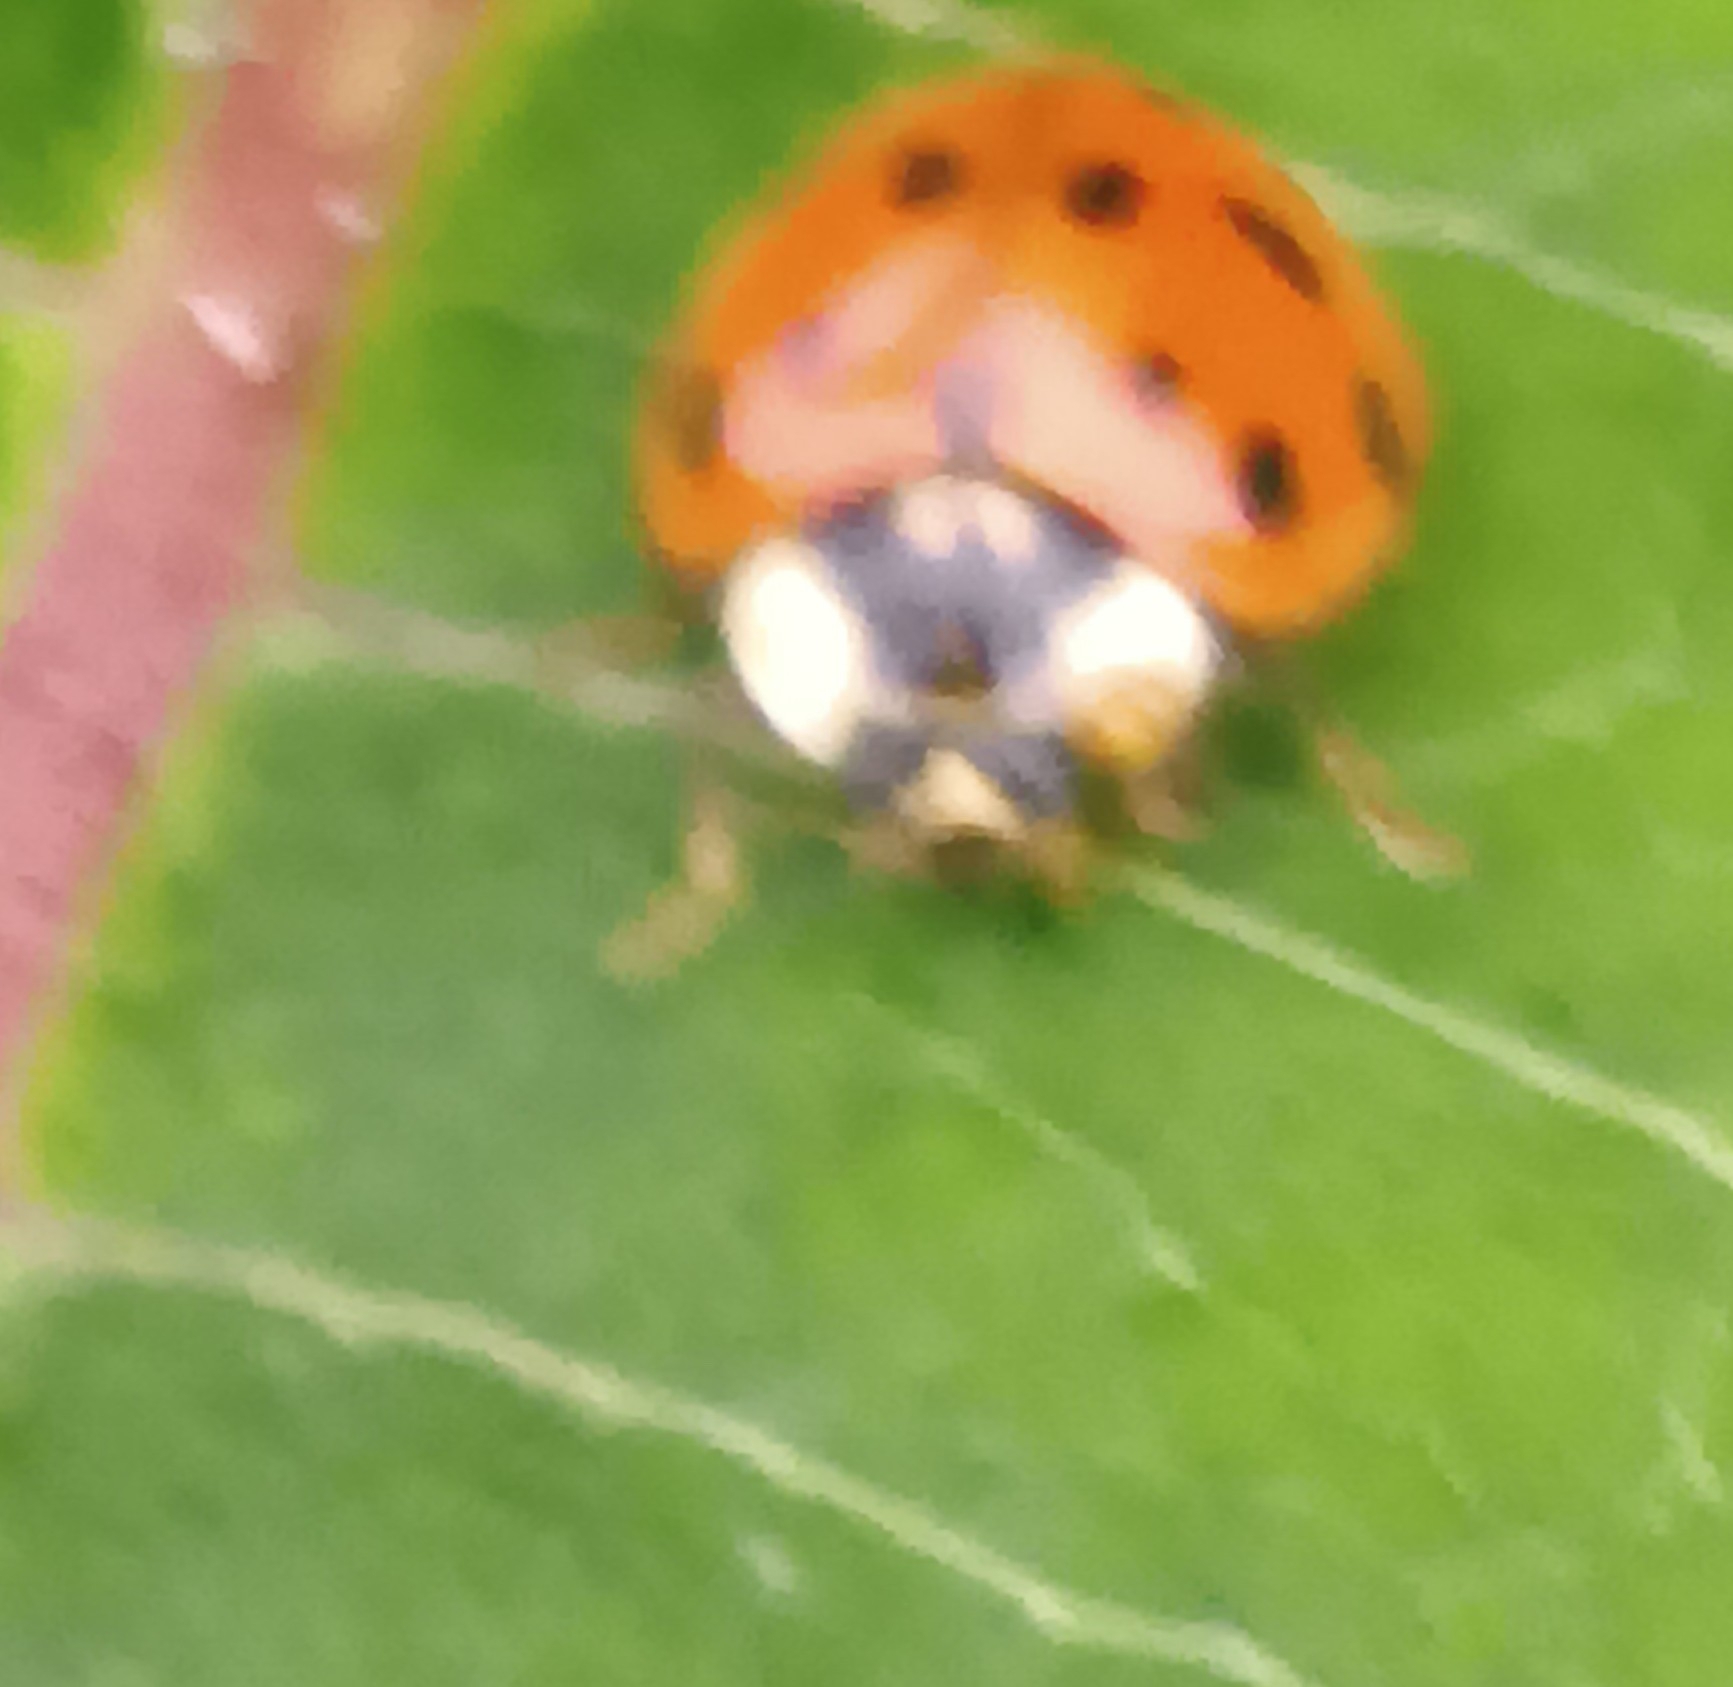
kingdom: Animalia
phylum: Arthropoda
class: Insecta
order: Coleoptera
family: Coccinellidae
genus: Harmonia
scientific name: Harmonia axyridis
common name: Harlequin ladybird
